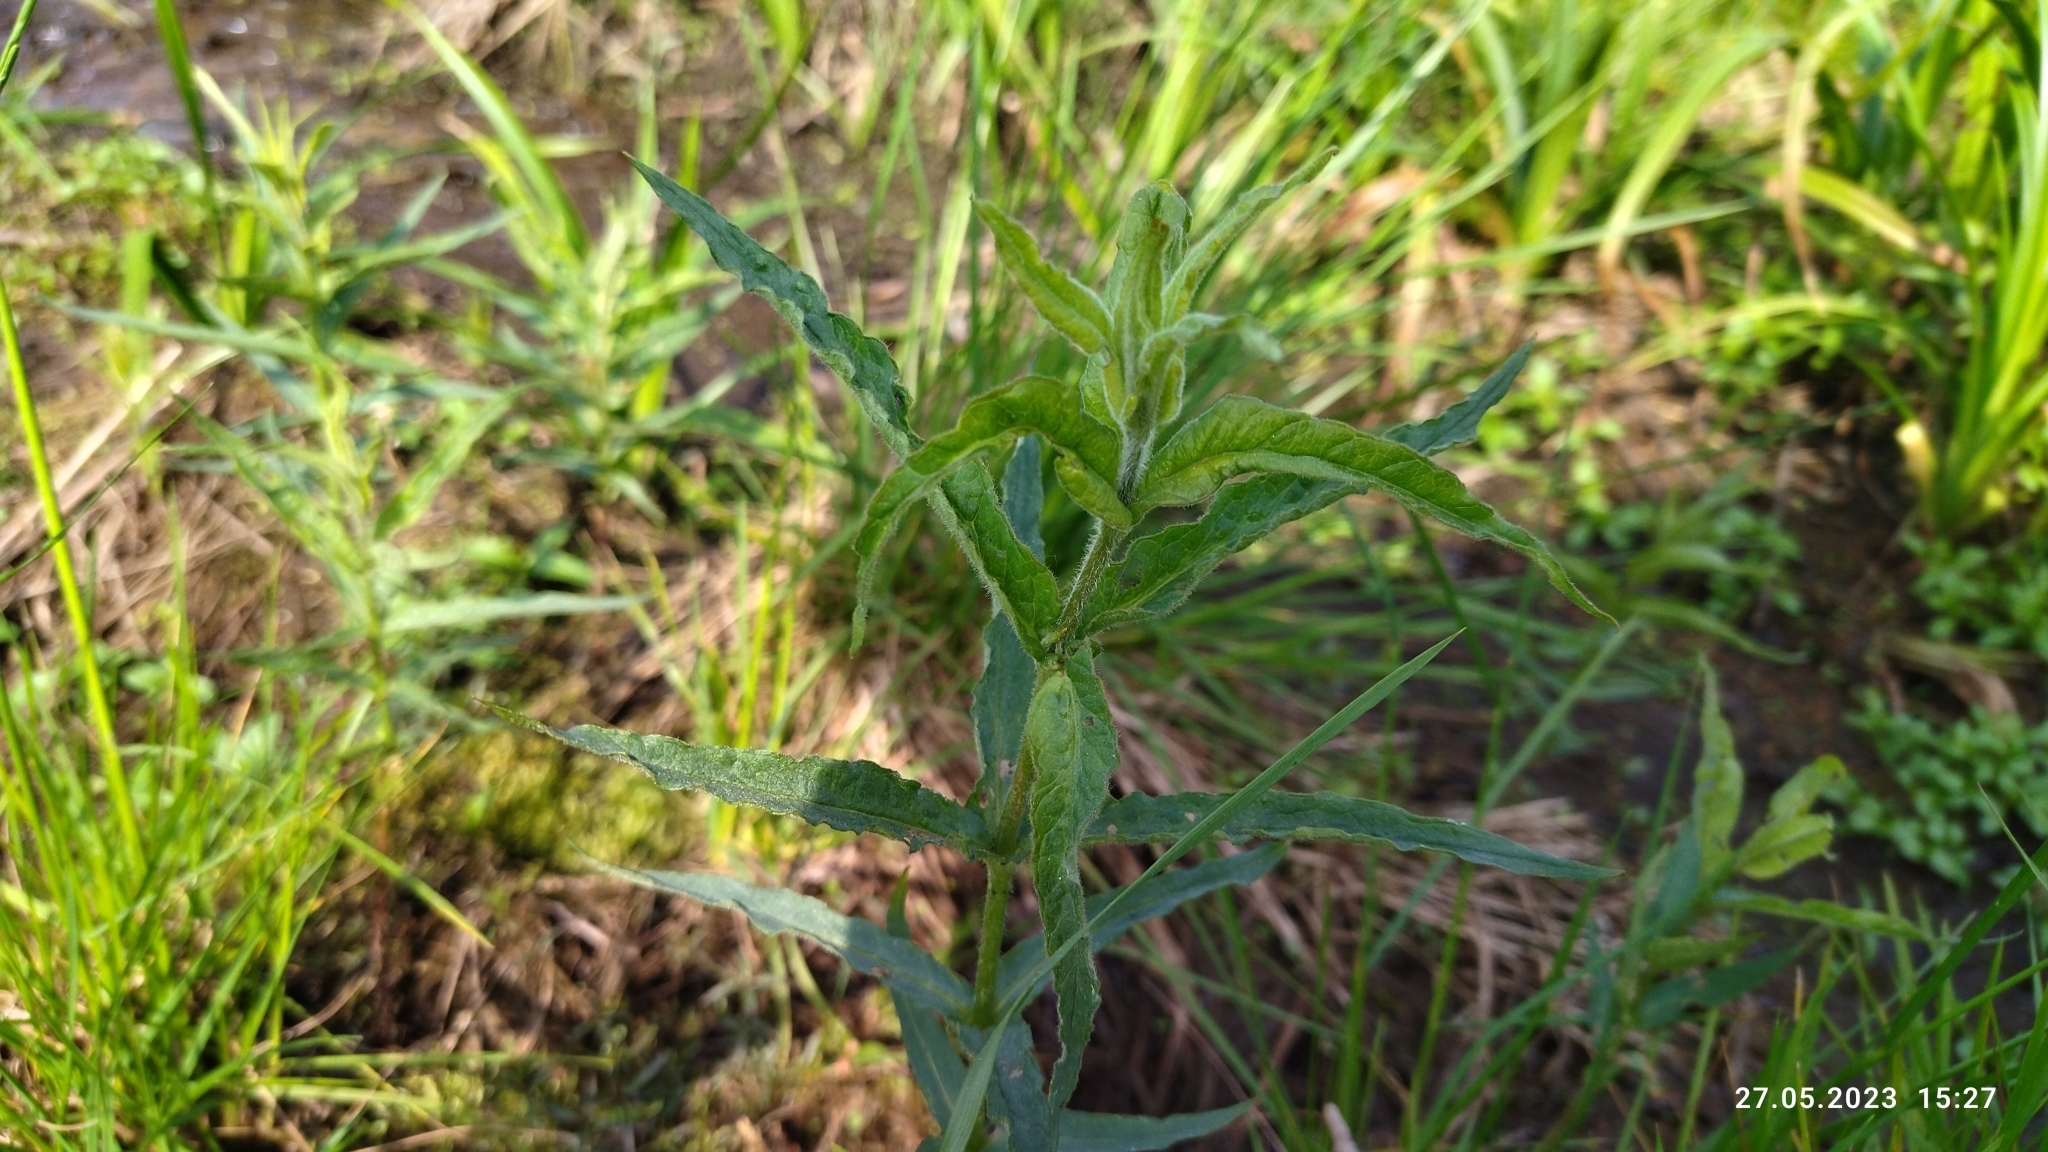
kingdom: Plantae
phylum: Tracheophyta
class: Magnoliopsida
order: Lamiales
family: Plantaginaceae
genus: Veronica
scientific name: Veronica longifolia
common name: Garden speedwell
